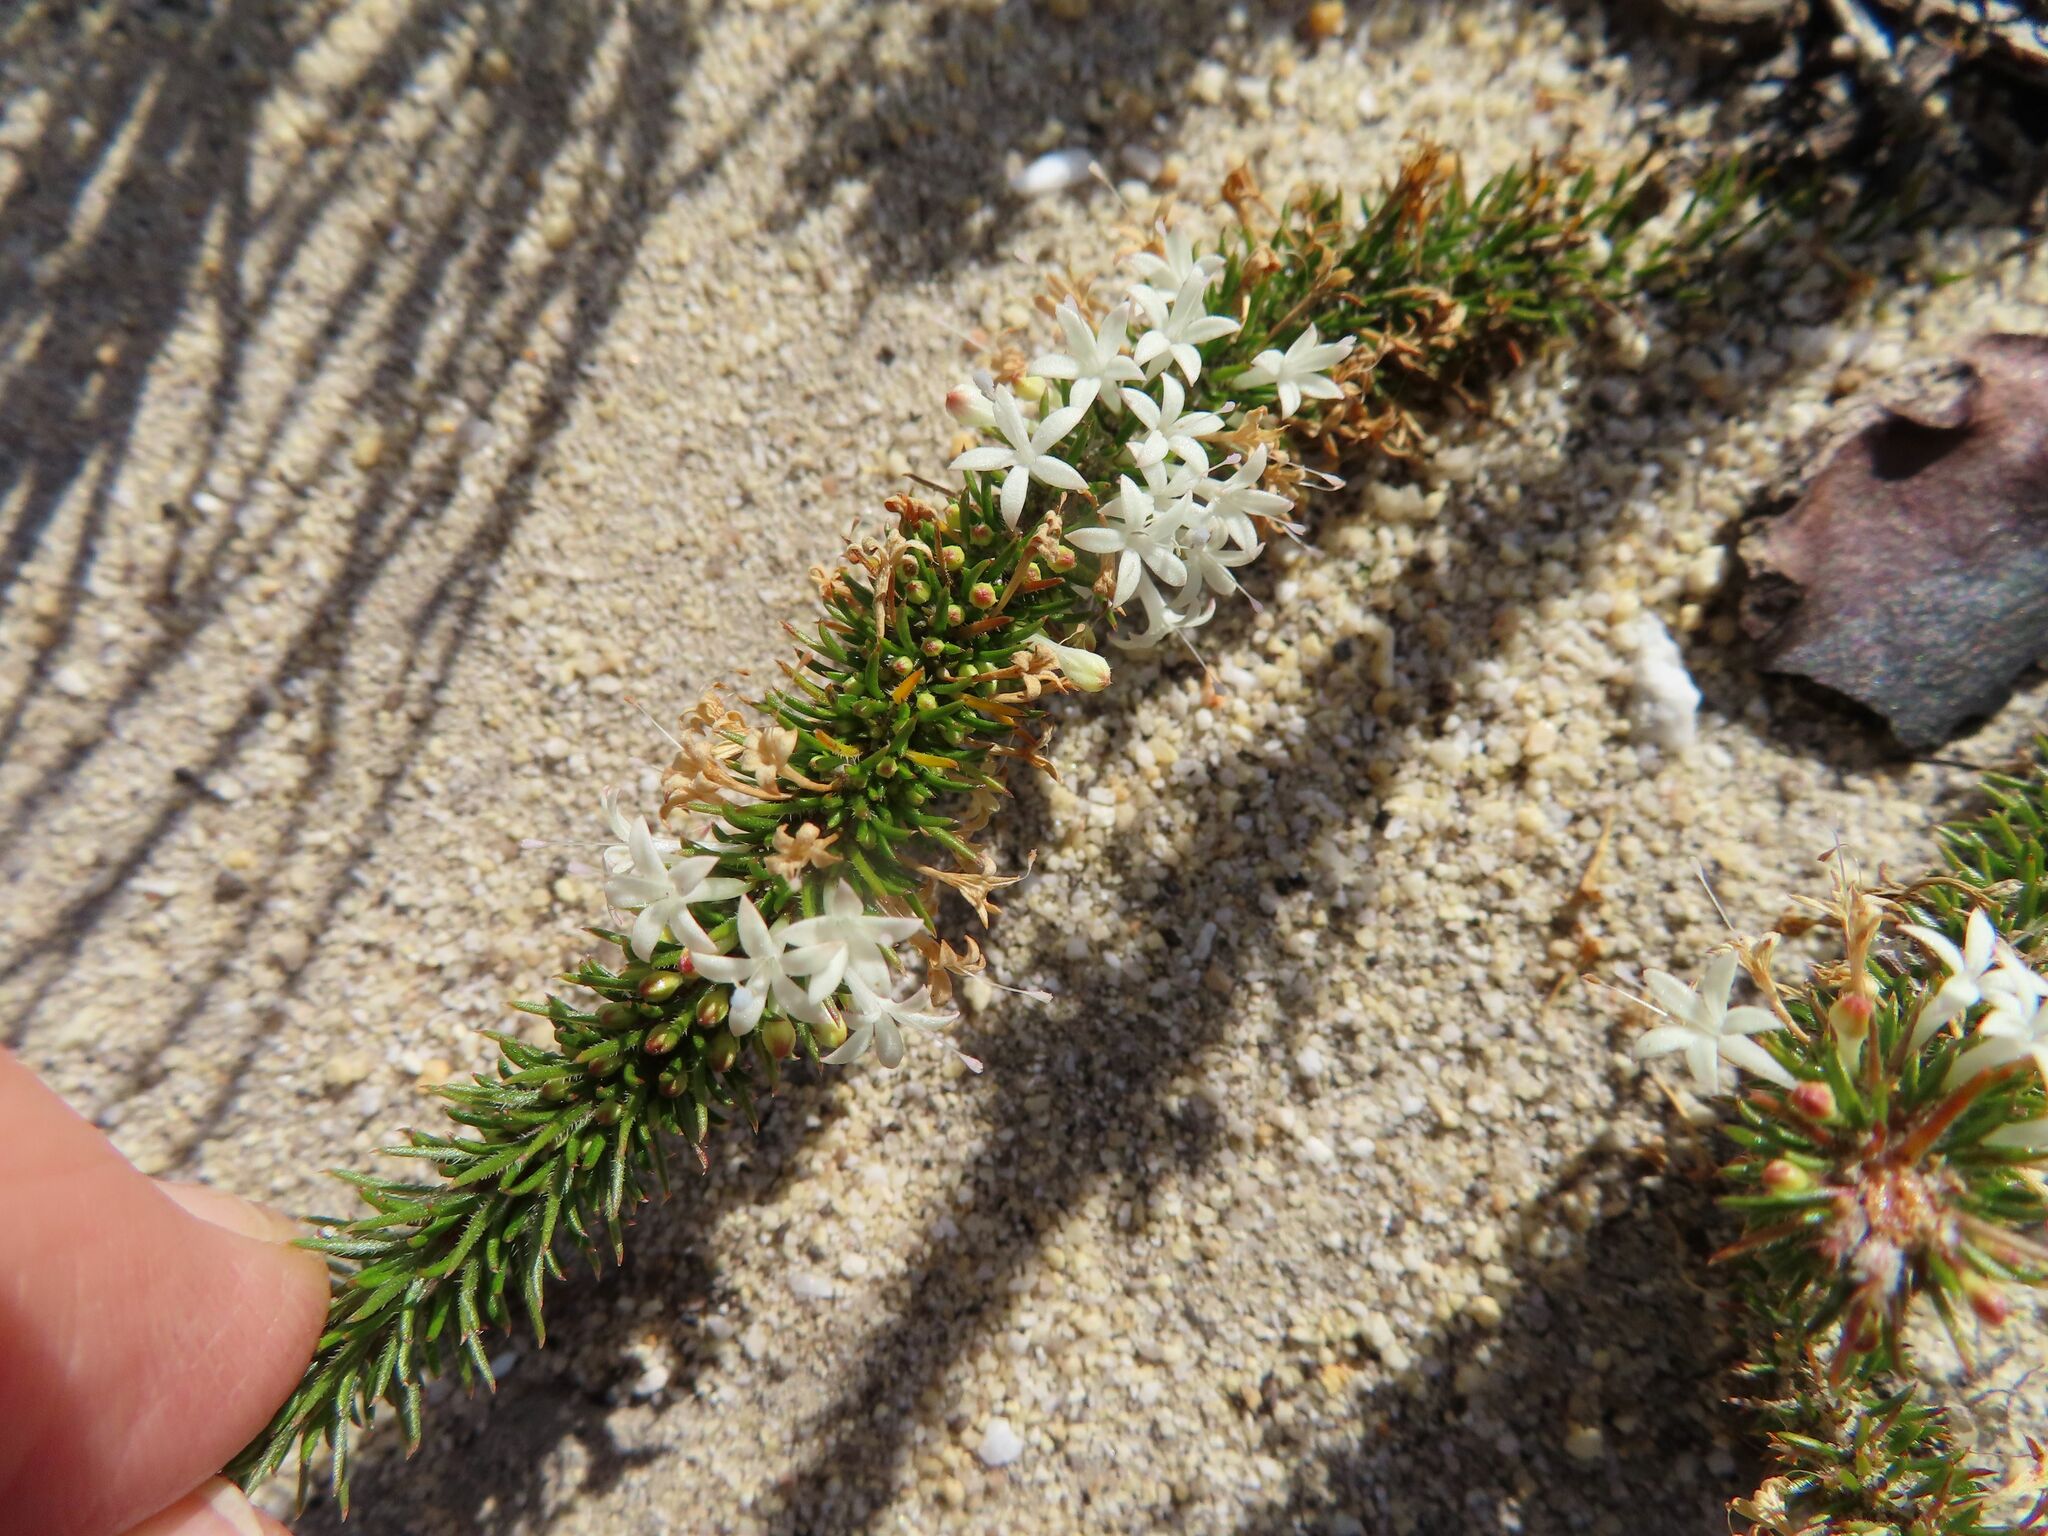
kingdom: Plantae
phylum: Tracheophyta
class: Magnoliopsida
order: Asterales
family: Campanulaceae
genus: Merciera
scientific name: Merciera leptoloba
